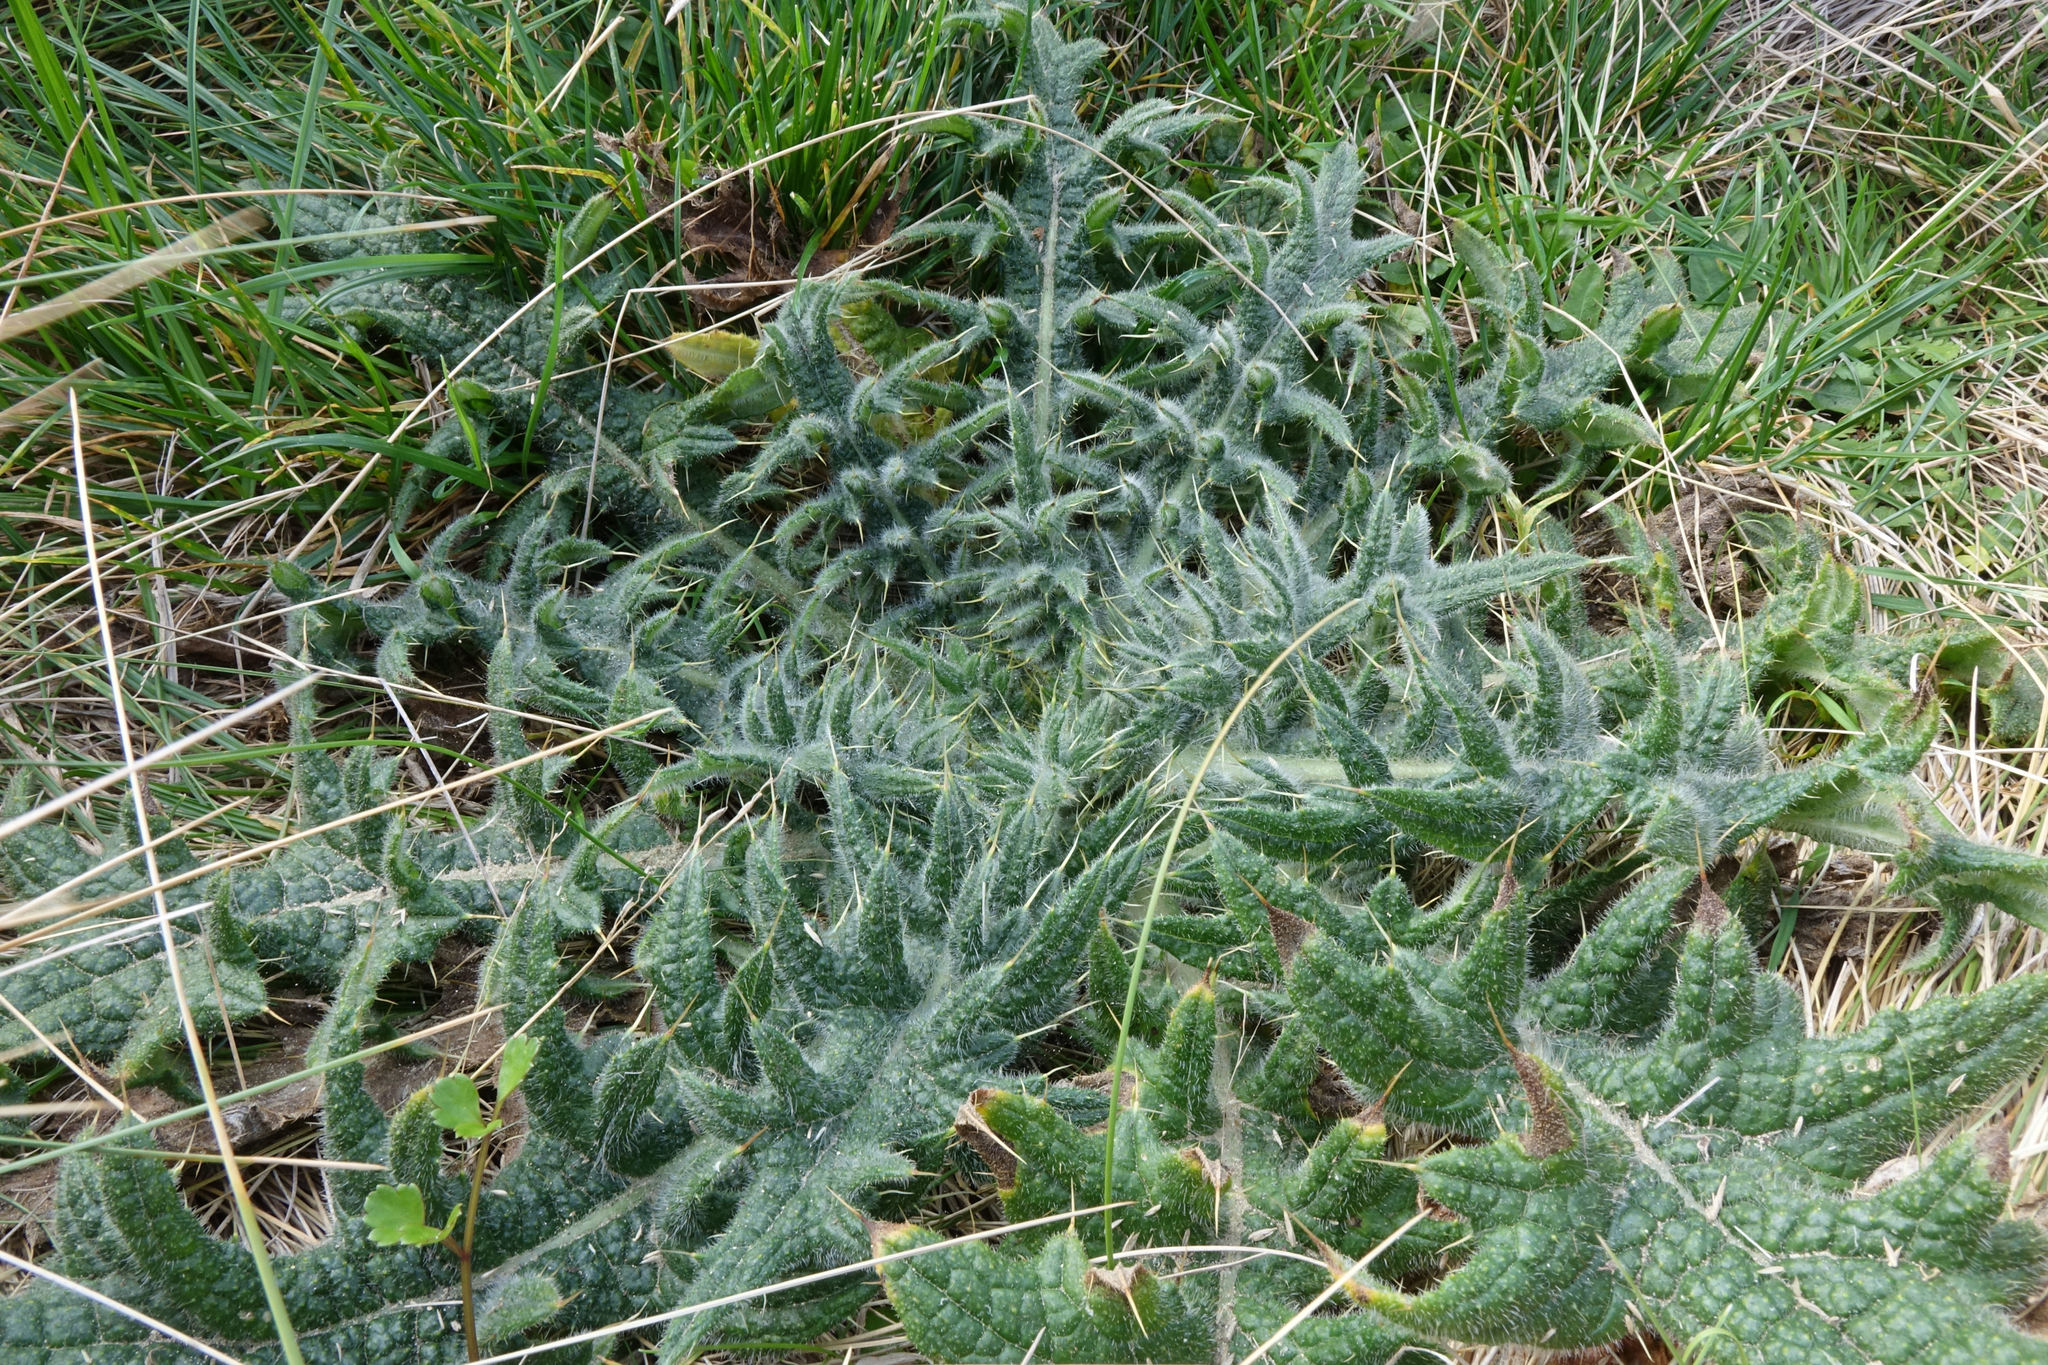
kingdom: Plantae
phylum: Tracheophyta
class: Magnoliopsida
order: Asterales
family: Asteraceae
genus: Cirsium
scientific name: Cirsium vulgare
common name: Bull thistle
